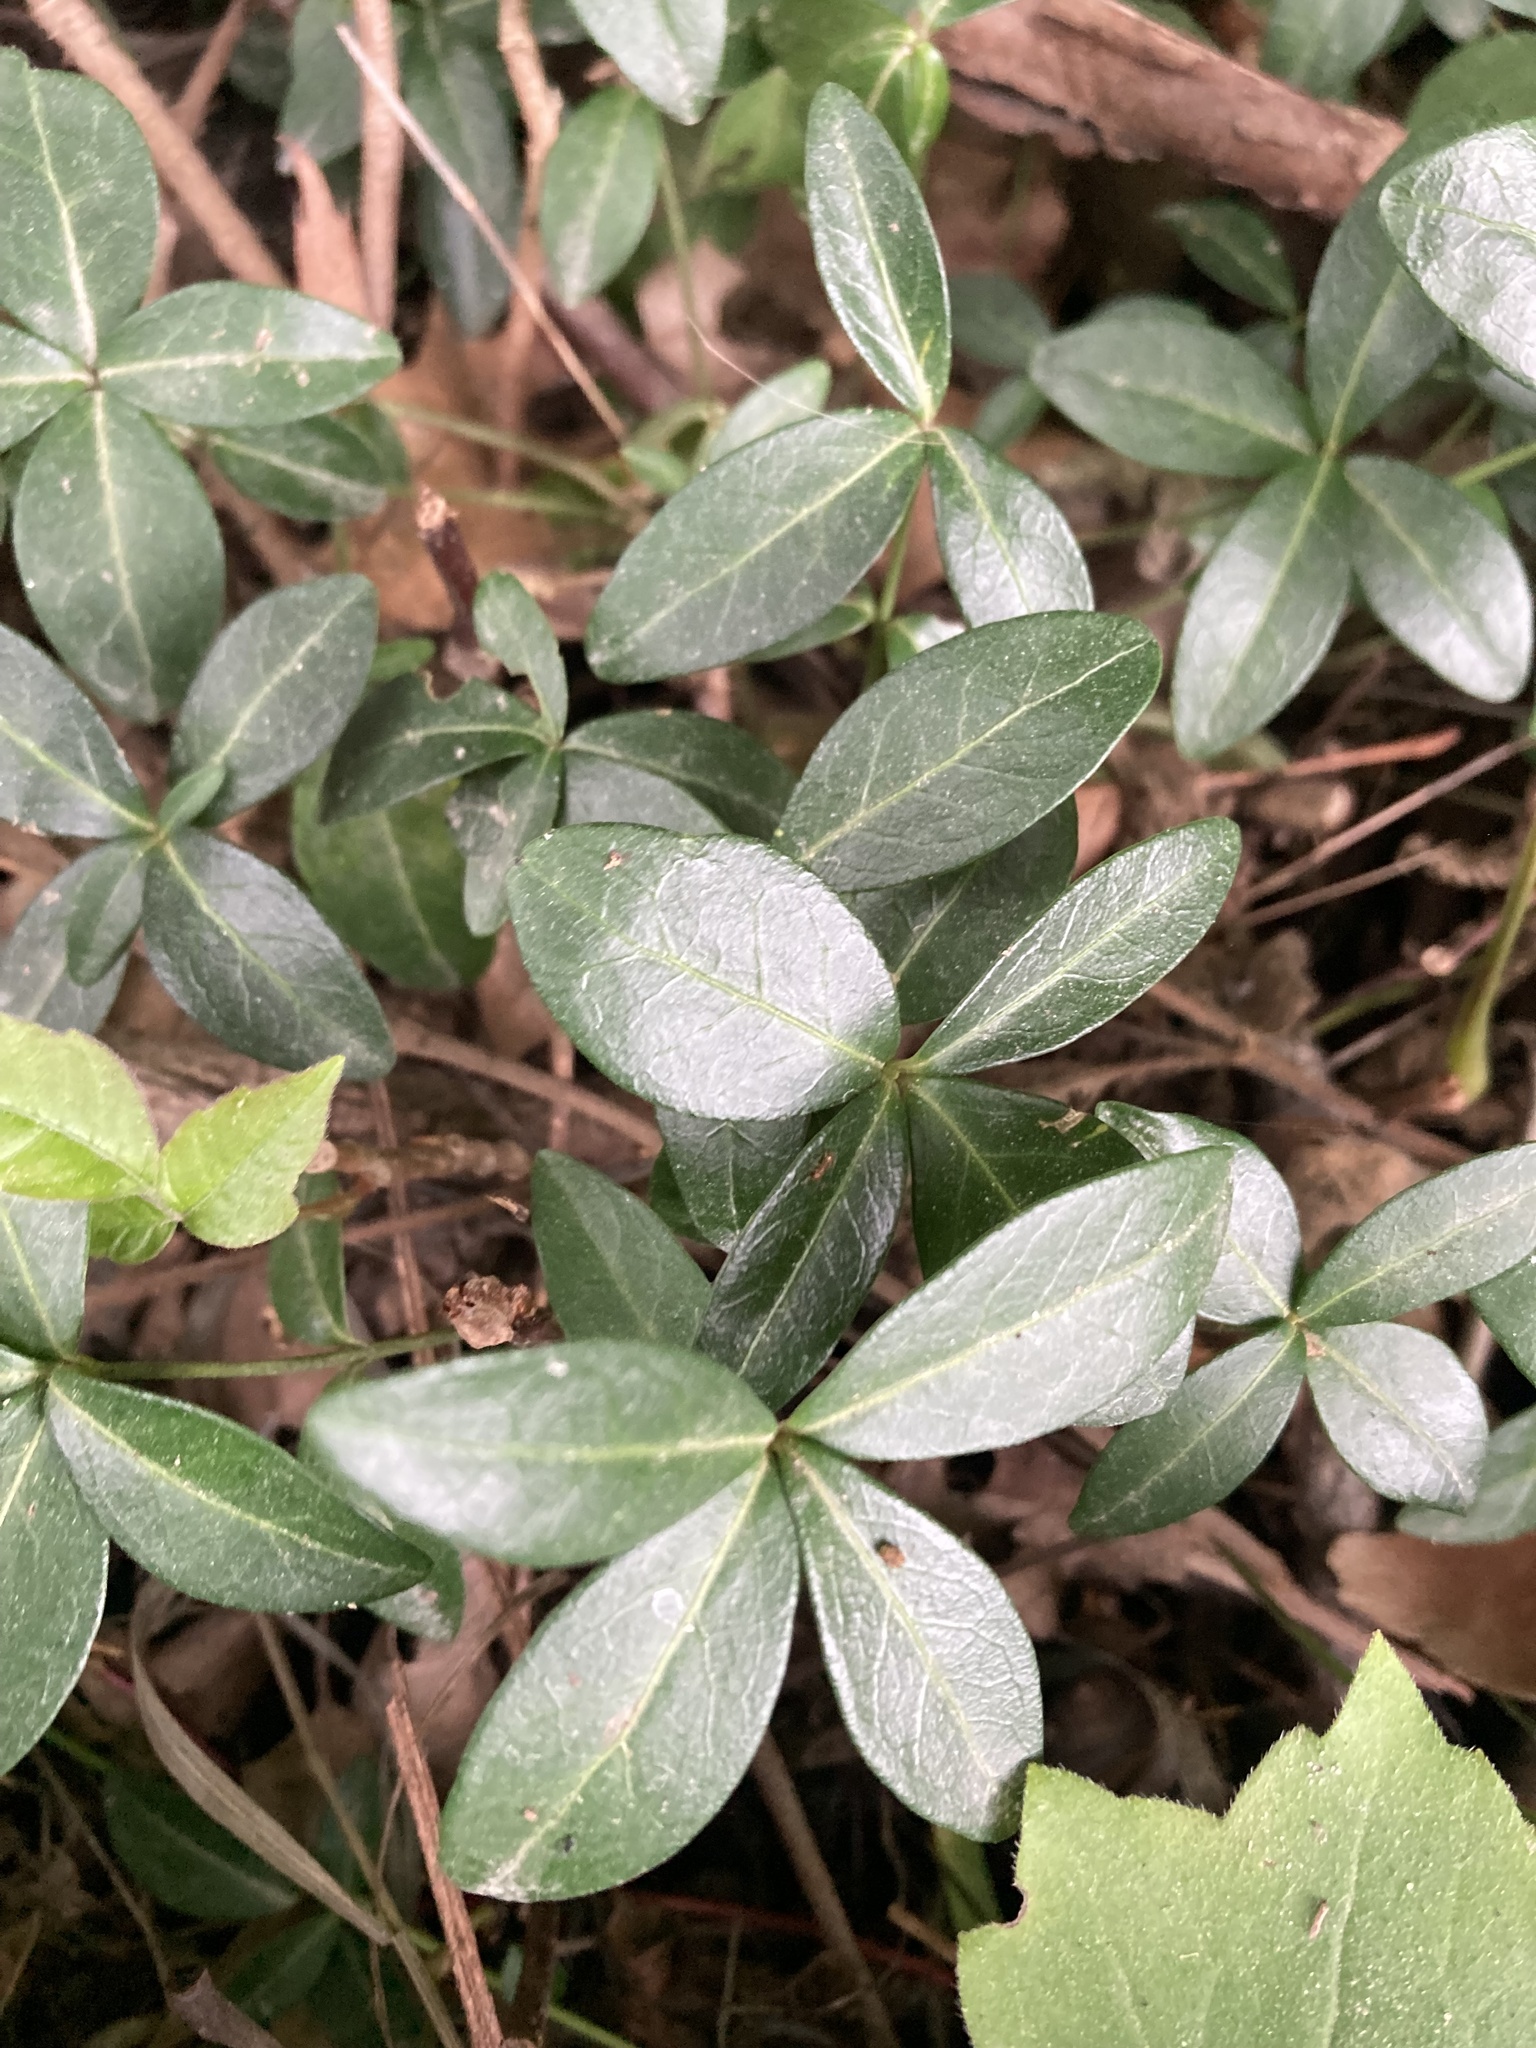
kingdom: Plantae
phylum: Tracheophyta
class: Magnoliopsida
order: Gentianales
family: Apocynaceae
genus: Vinca
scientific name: Vinca minor
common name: Lesser periwinkle
